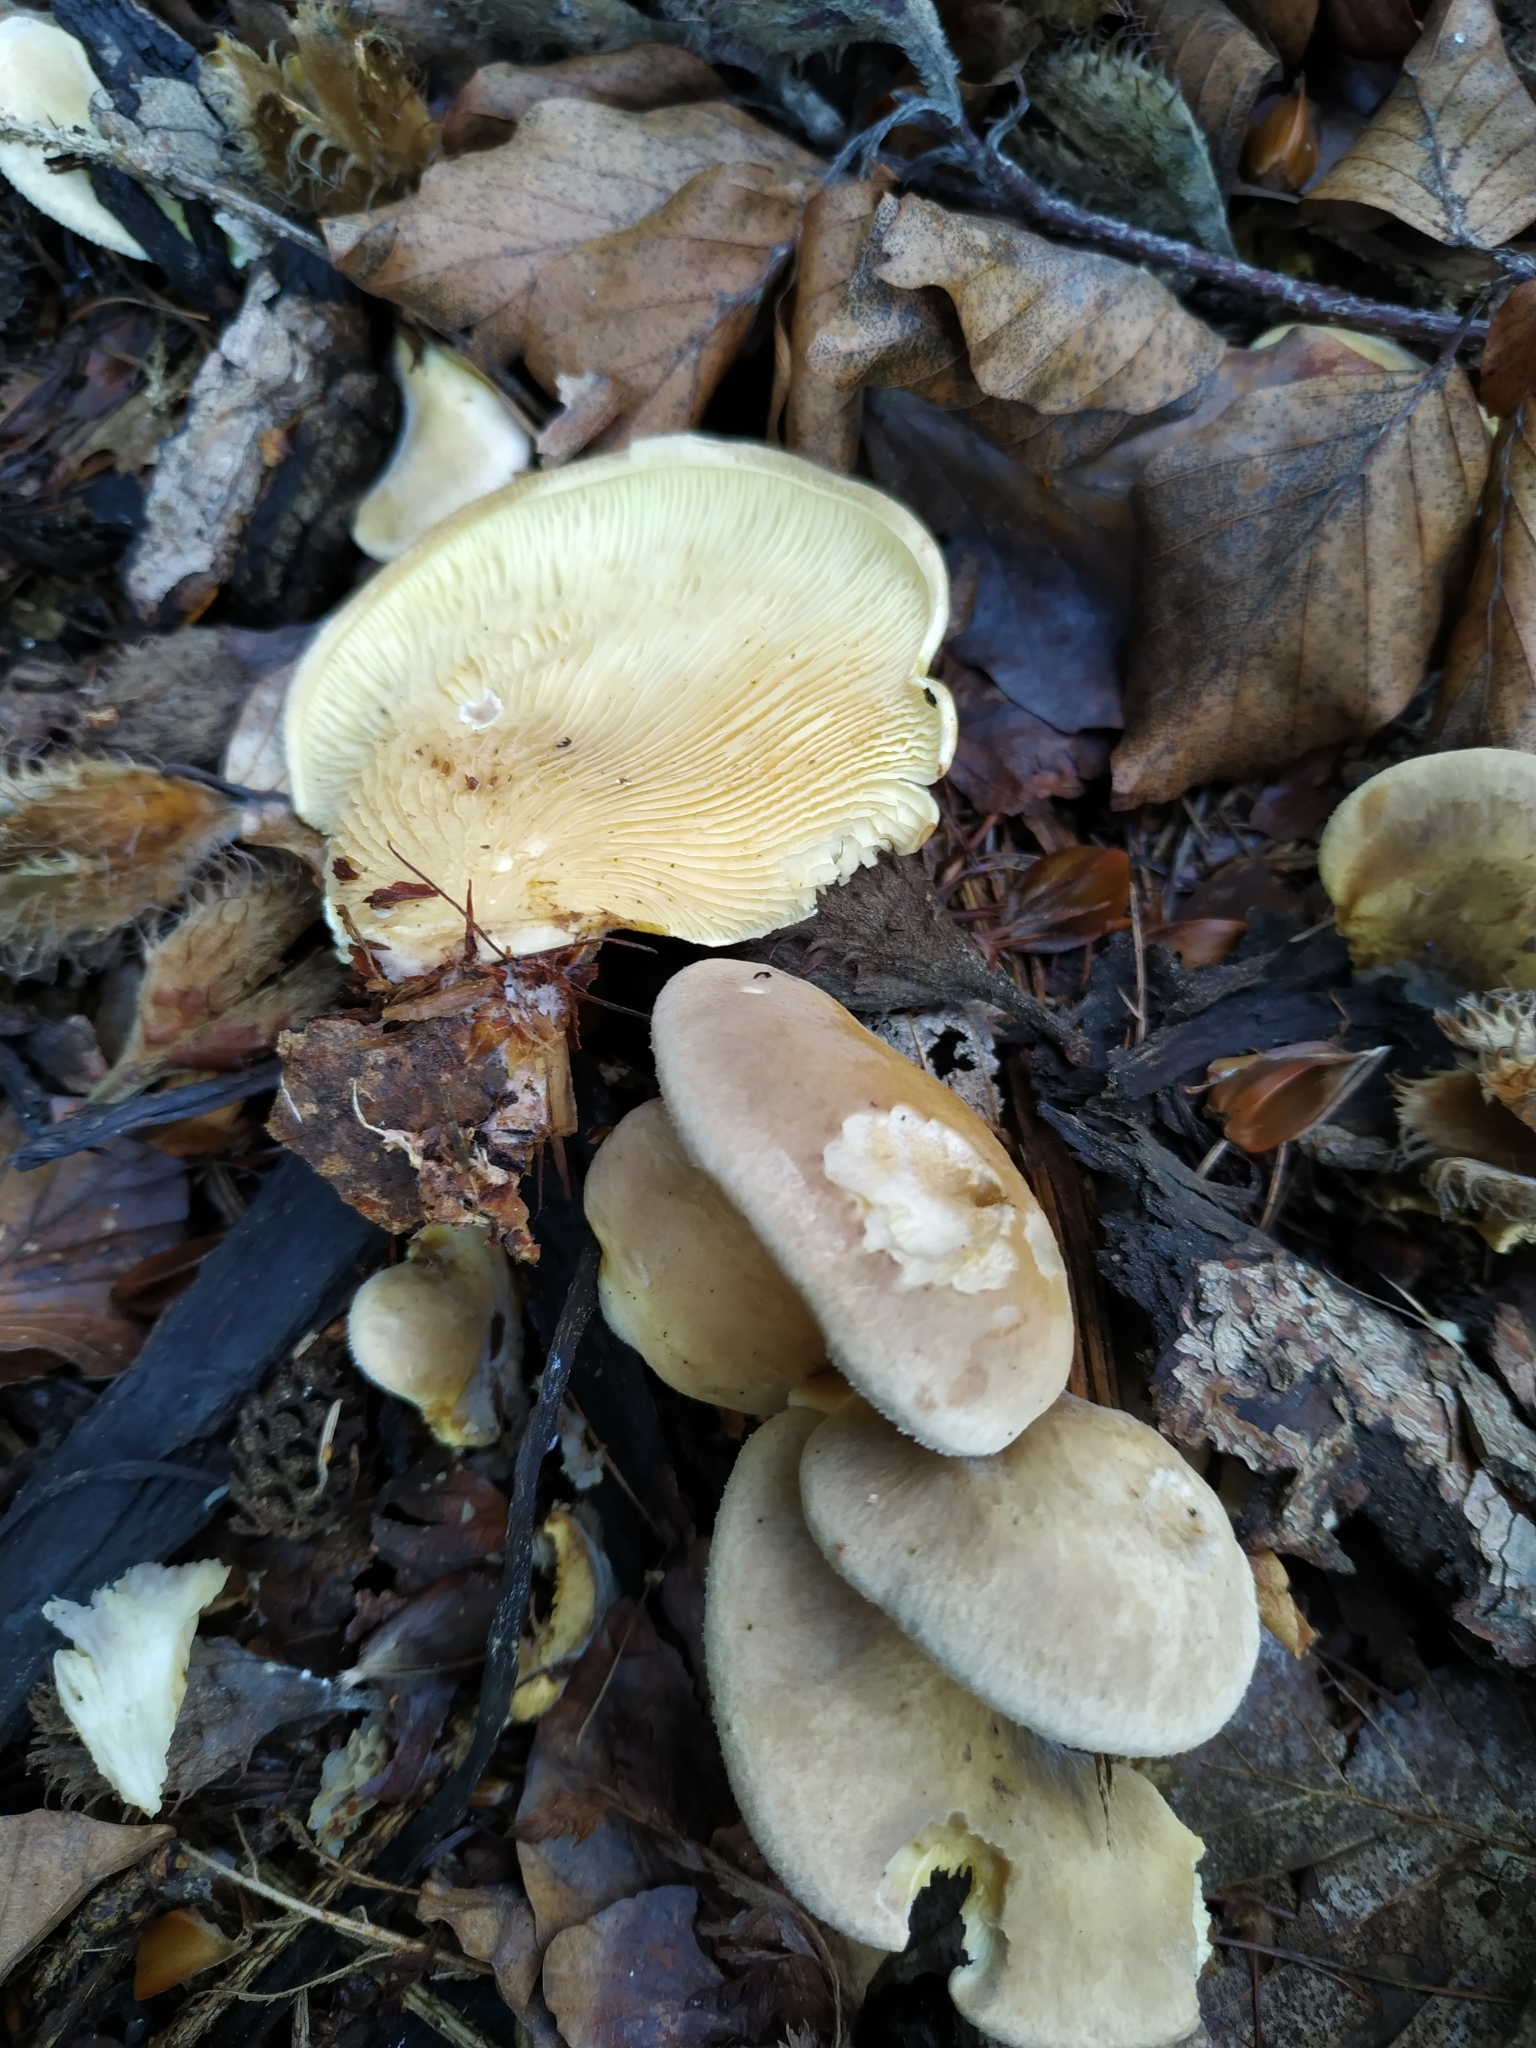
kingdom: Fungi
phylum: Basidiomycota
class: Agaricomycetes
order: Boletales
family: Tapinellaceae
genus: Tapinella
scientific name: Tapinella panuoides
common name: Oyster rollrim
